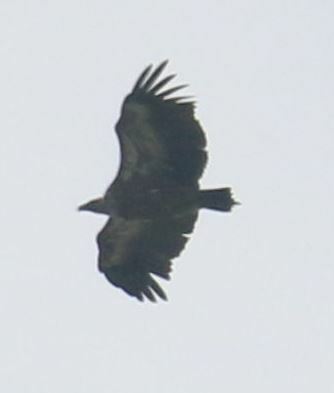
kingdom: Animalia
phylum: Chordata
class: Aves
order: Accipitriformes
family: Accipitridae
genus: Gyps
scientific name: Gyps fulvus
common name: Griffon vulture
